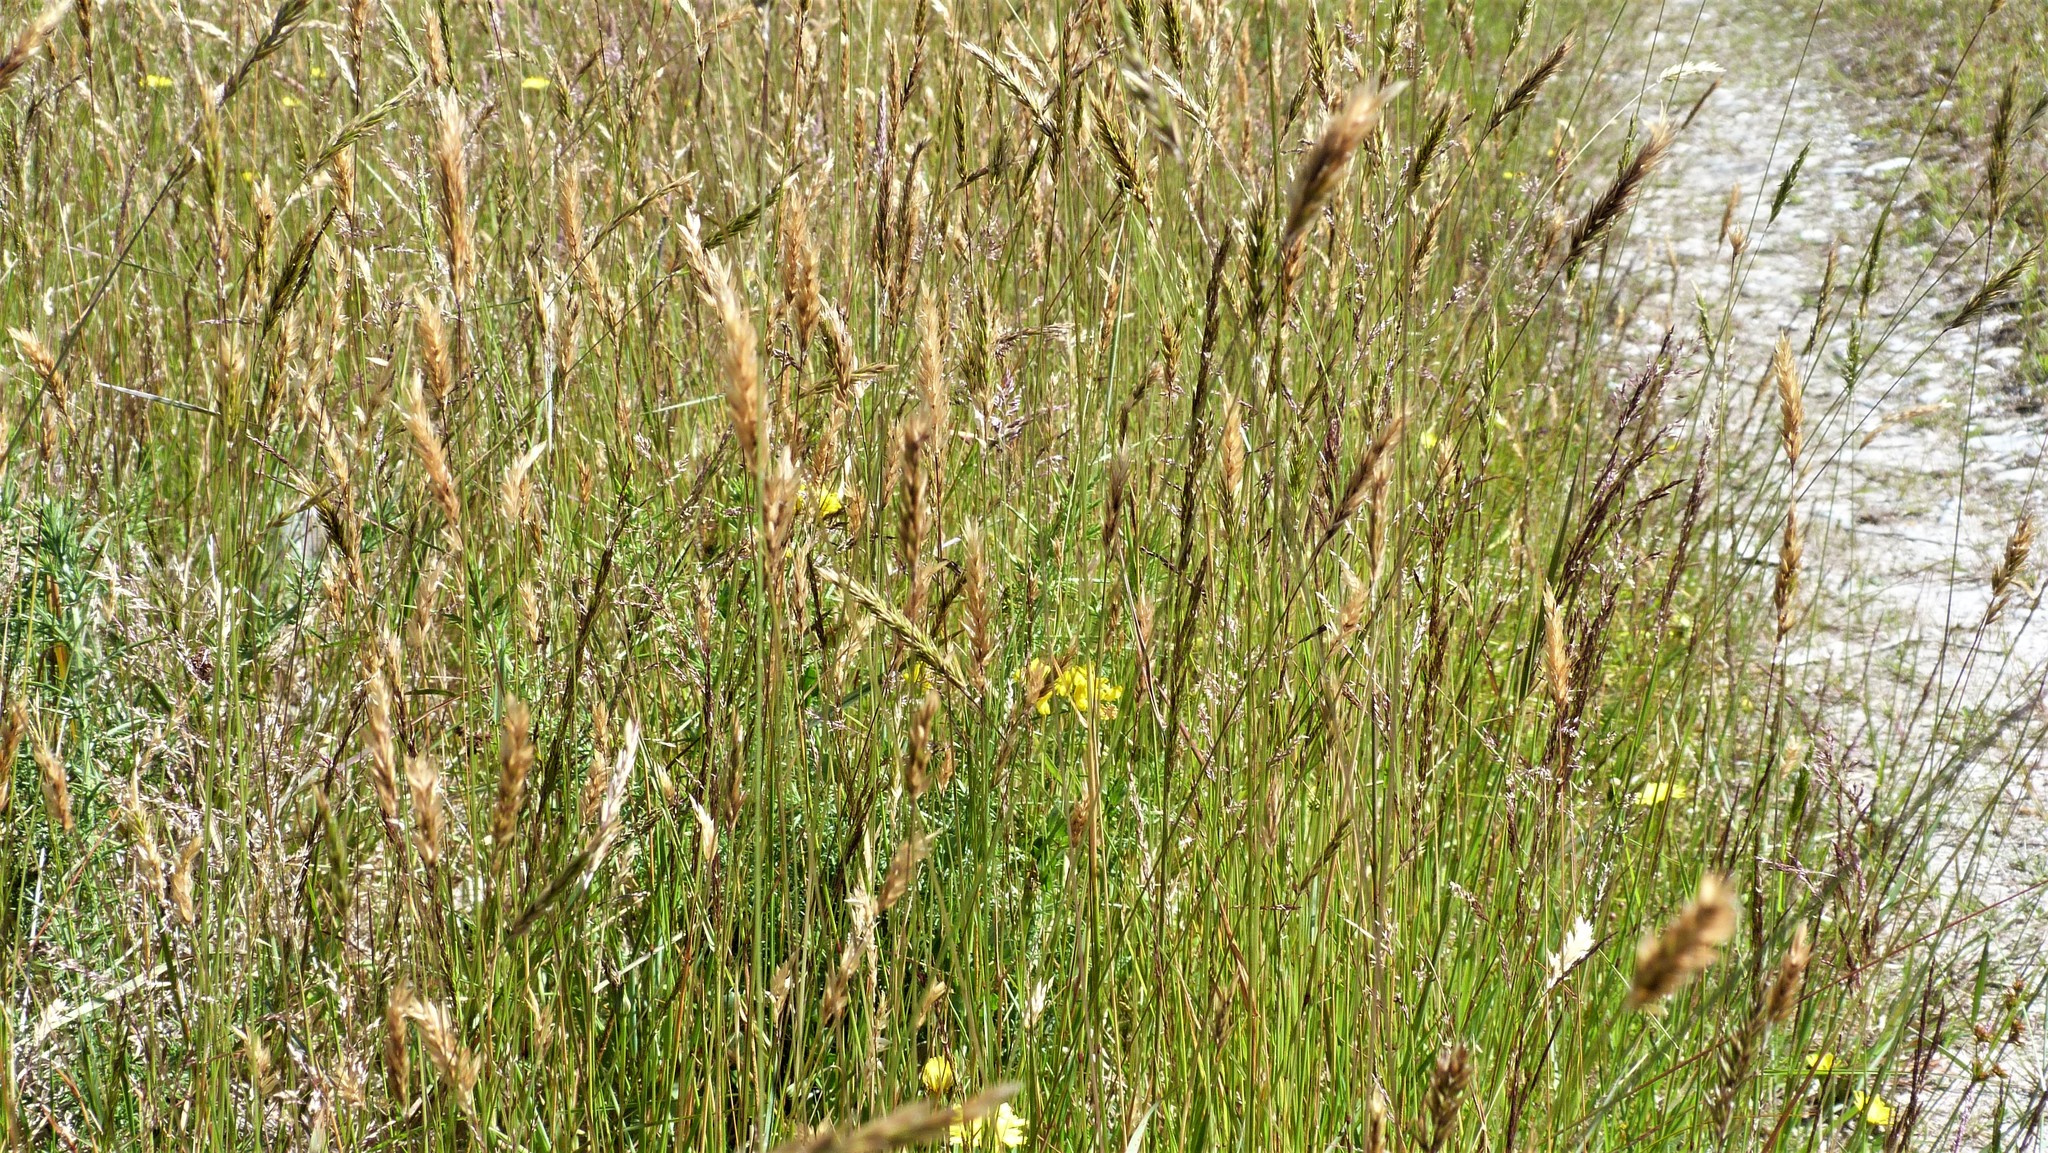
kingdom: Plantae
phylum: Tracheophyta
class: Liliopsida
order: Poales
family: Poaceae
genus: Anthoxanthum
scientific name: Anthoxanthum odoratum
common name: Sweet vernalgrass
